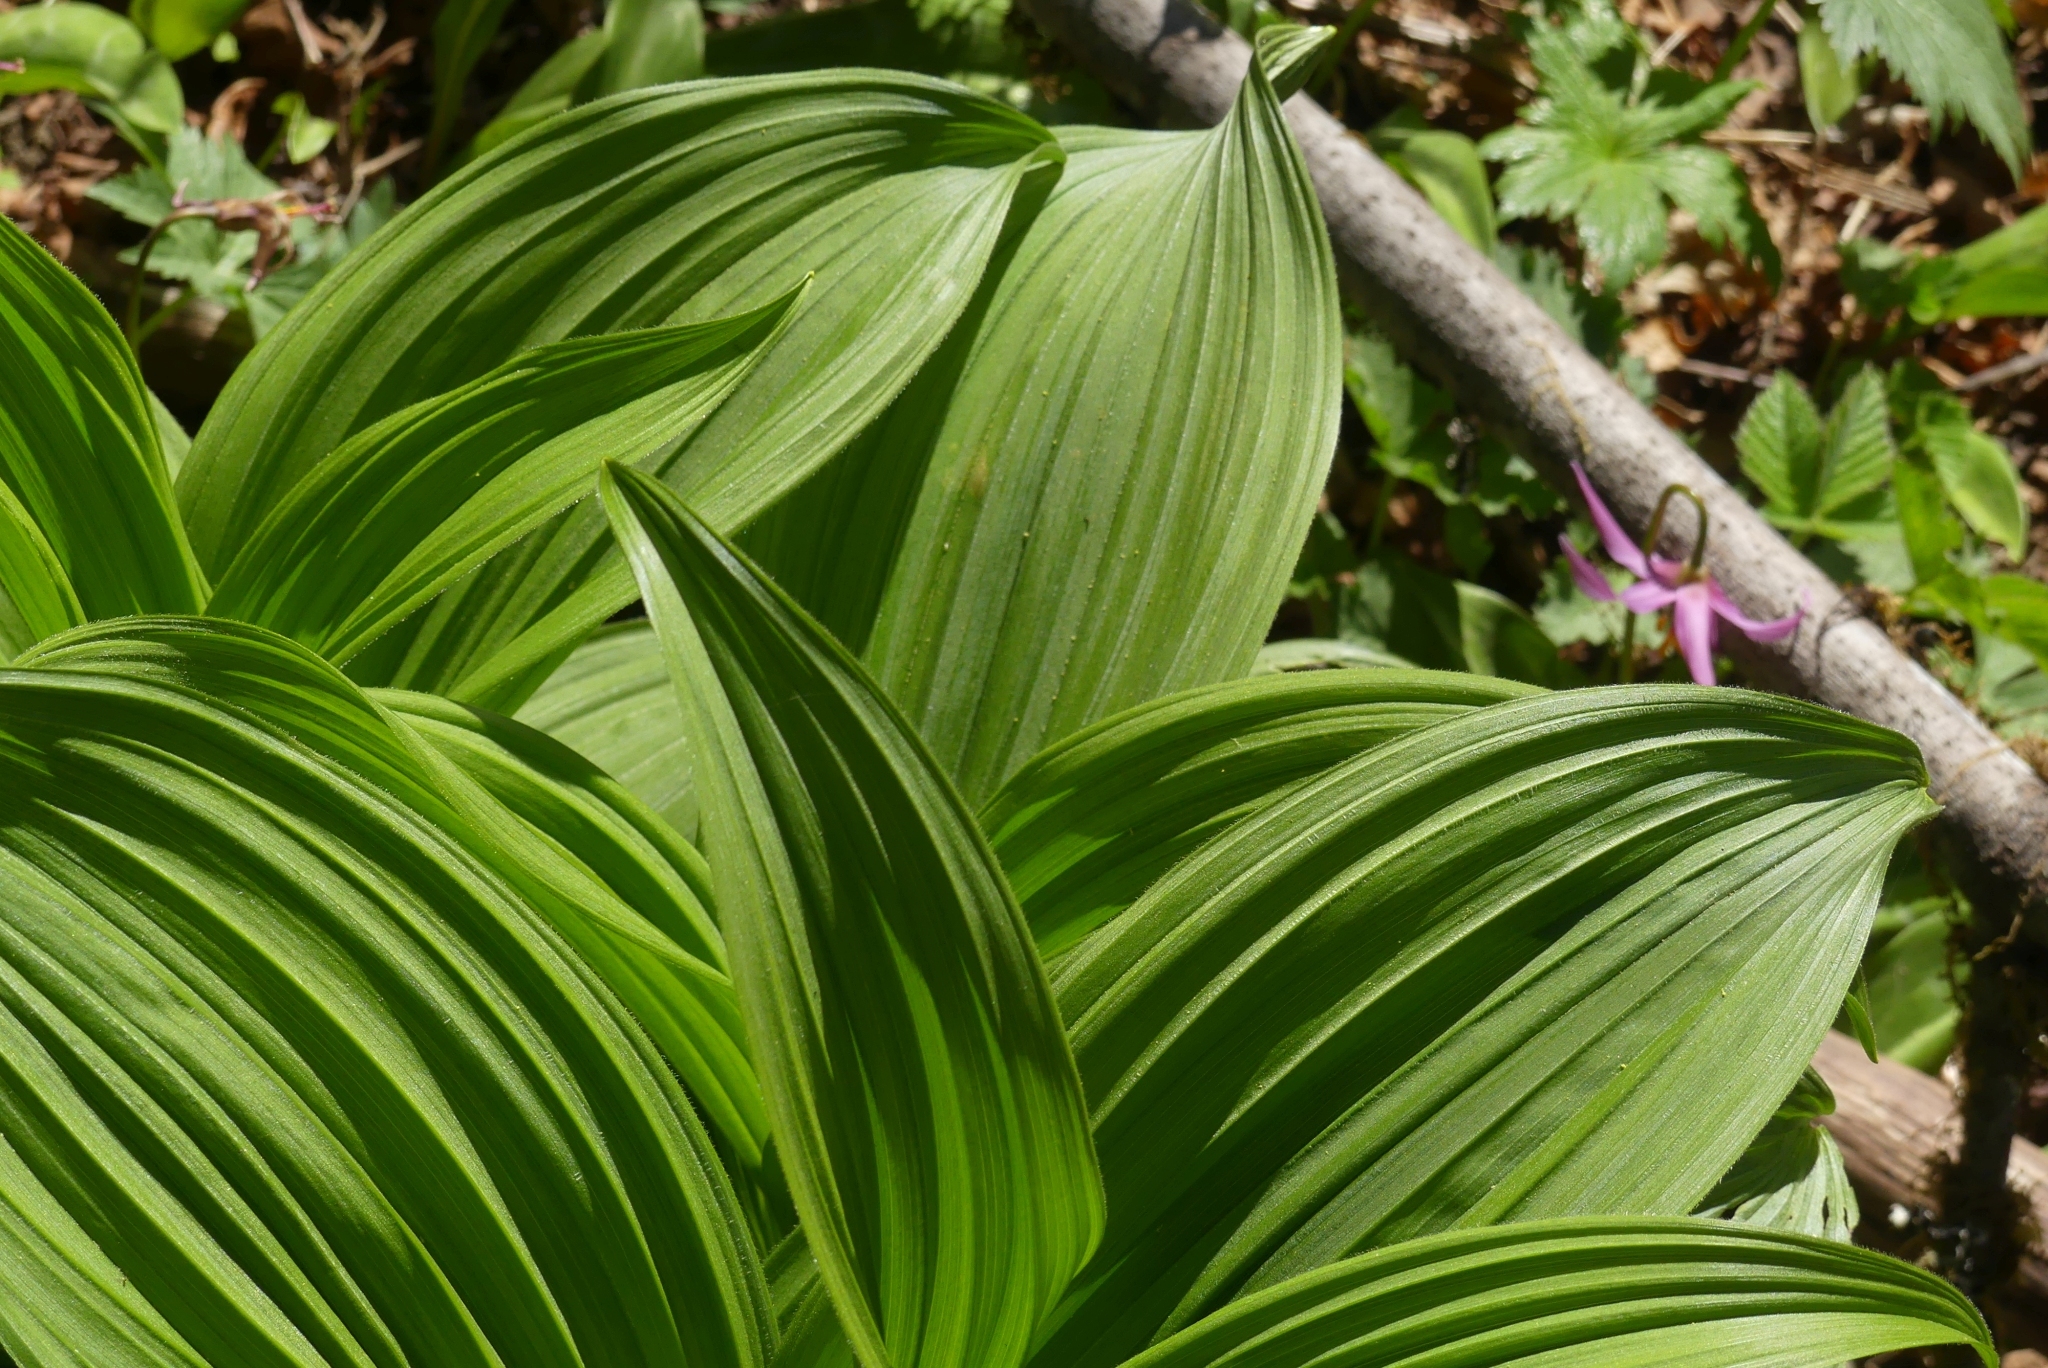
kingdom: Plantae
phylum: Tracheophyta
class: Liliopsida
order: Liliales
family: Melanthiaceae
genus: Veratrum
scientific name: Veratrum viride
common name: American false hellebore
